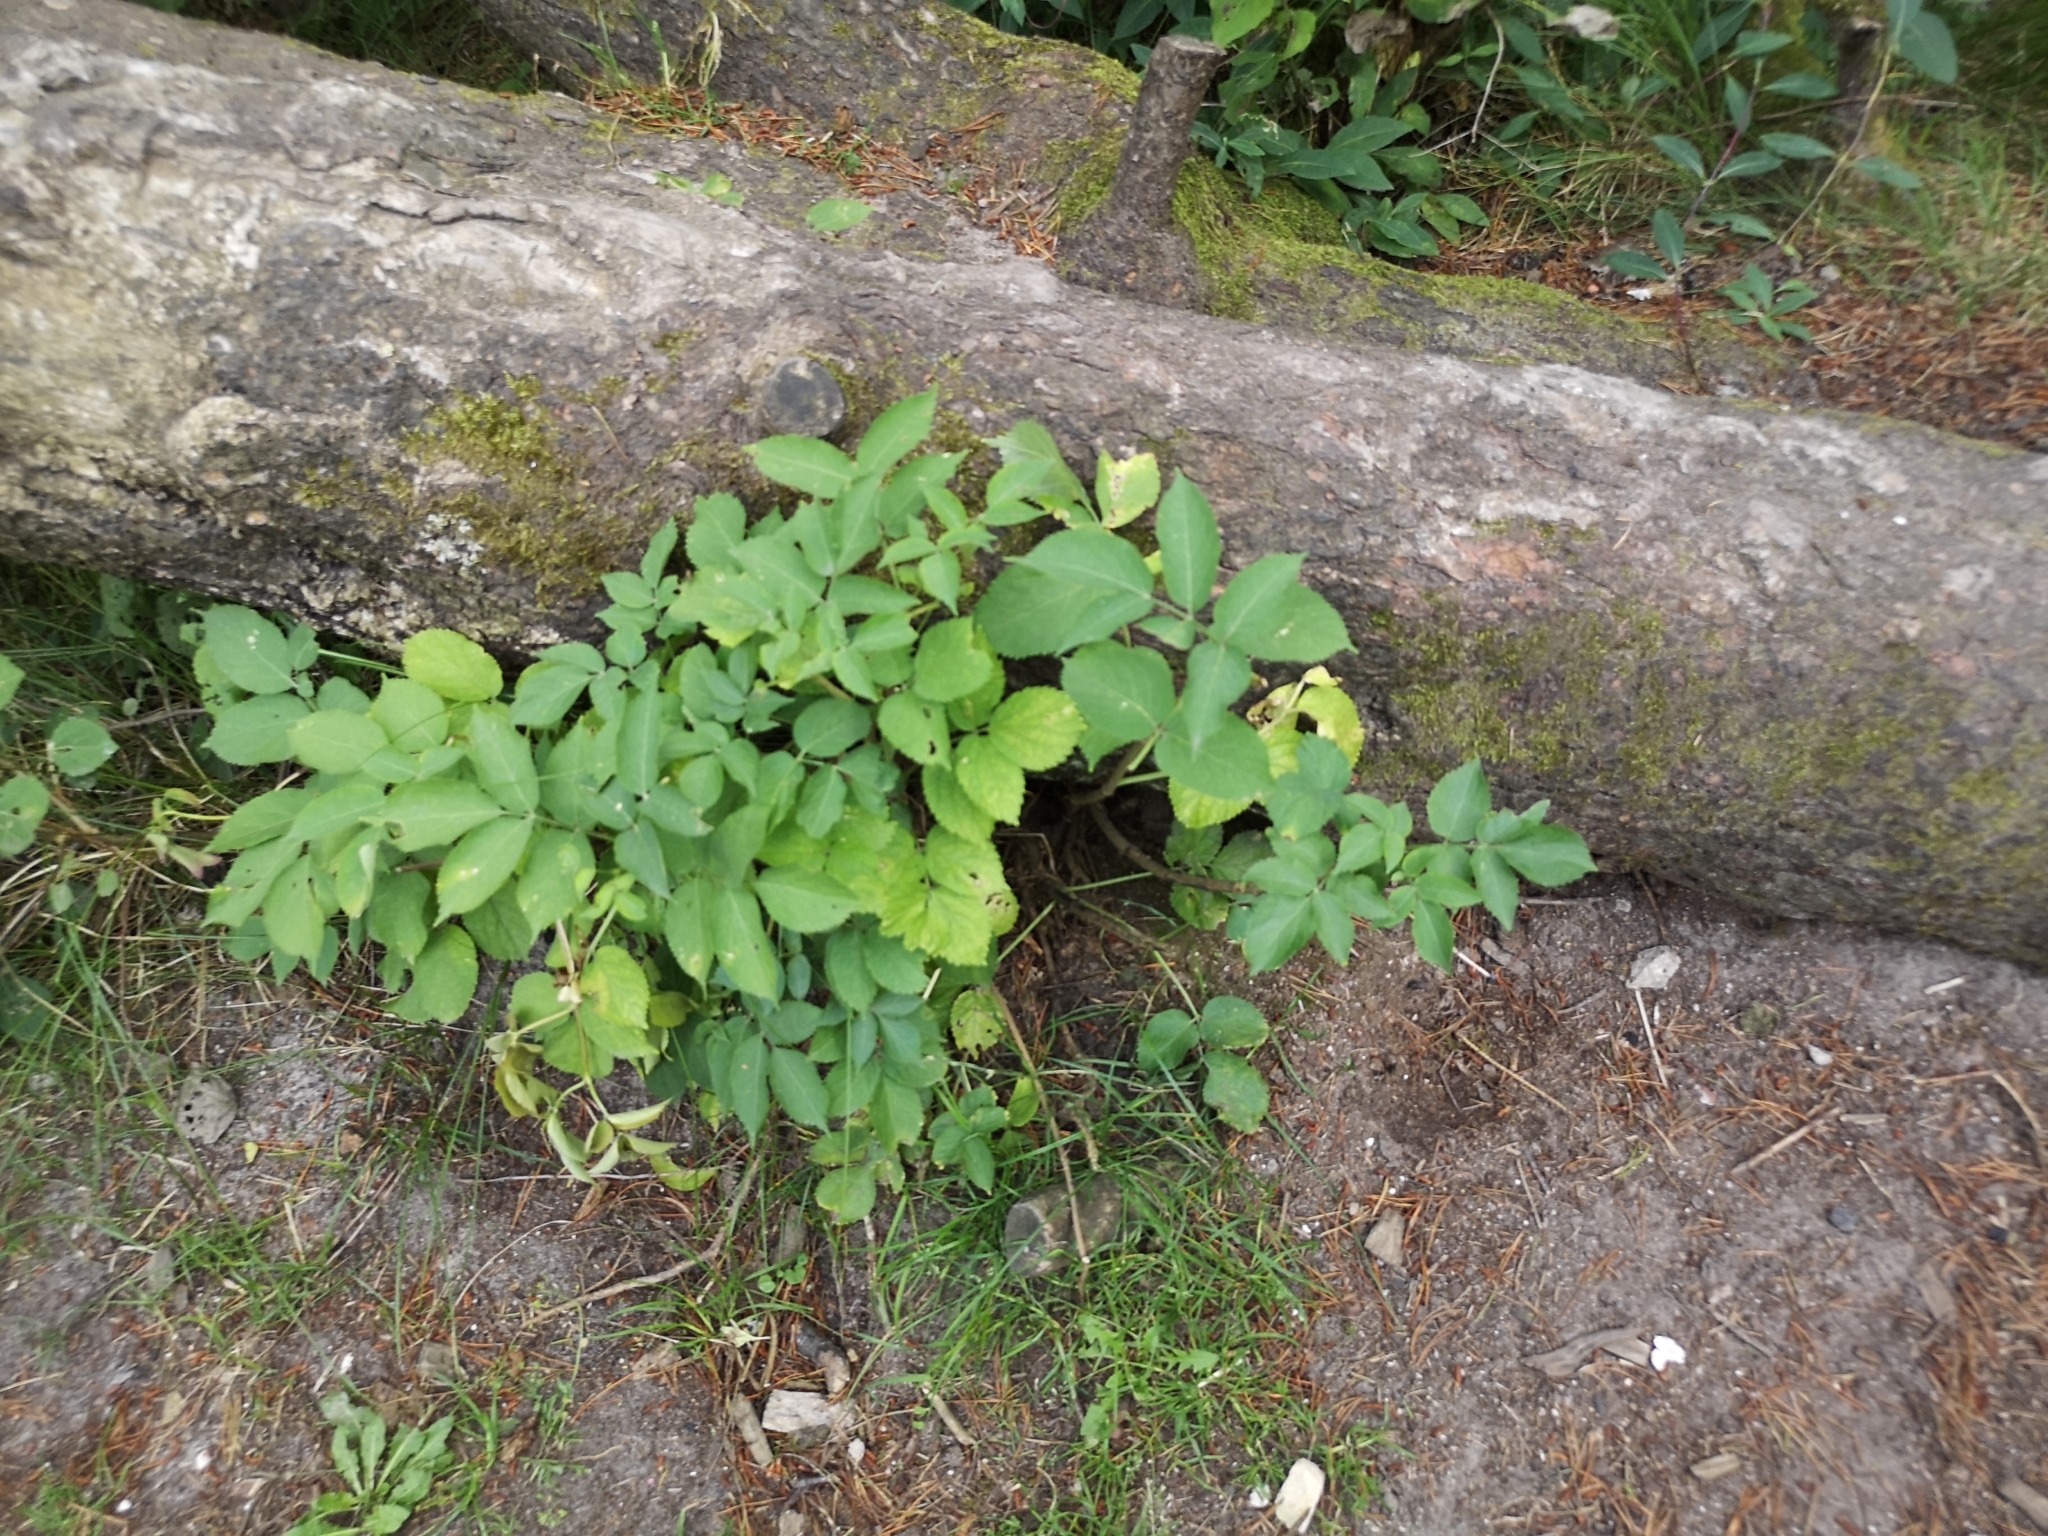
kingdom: Plantae
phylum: Tracheophyta
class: Magnoliopsida
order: Dipsacales
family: Viburnaceae
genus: Sambucus
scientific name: Sambucus nigra
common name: Elder
